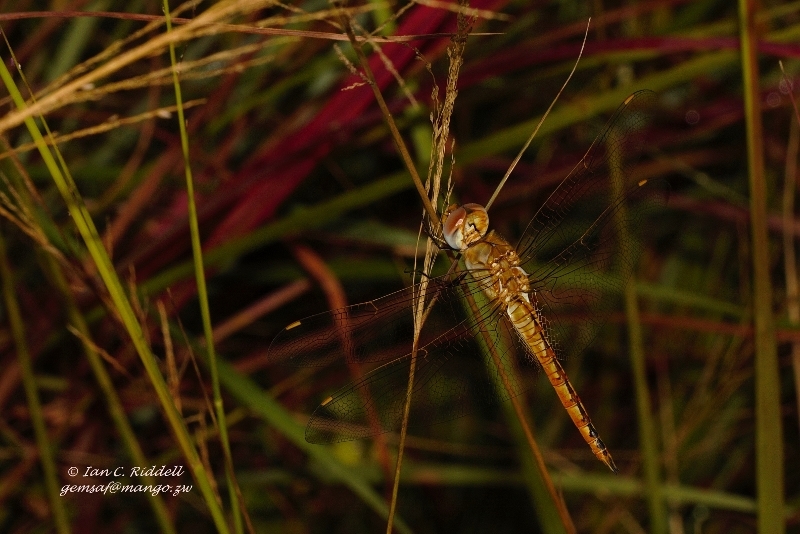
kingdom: Animalia
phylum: Arthropoda
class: Insecta
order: Odonata
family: Libellulidae
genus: Pantala
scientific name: Pantala flavescens
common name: Wandering glider
